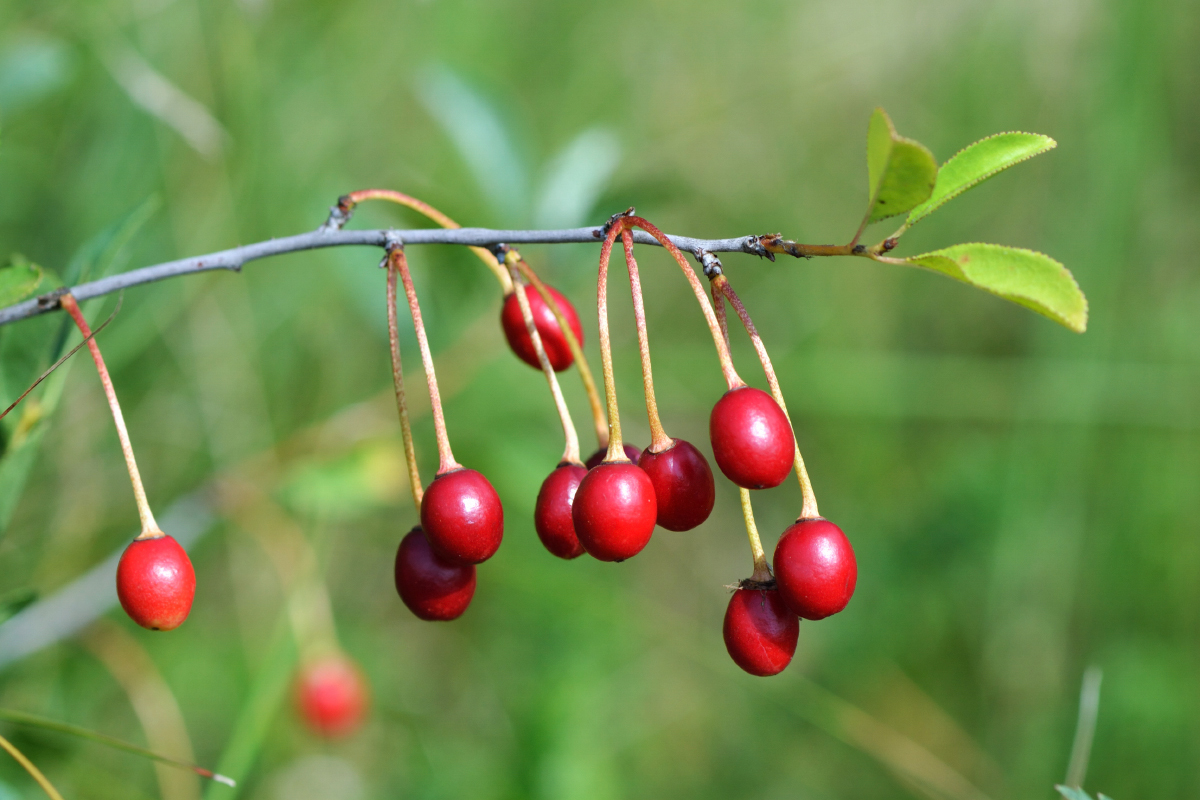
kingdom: Plantae
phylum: Tracheophyta
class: Magnoliopsida
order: Rosales
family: Rosaceae
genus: Prunus
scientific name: Prunus fruticosa
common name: European dwarf cherry
